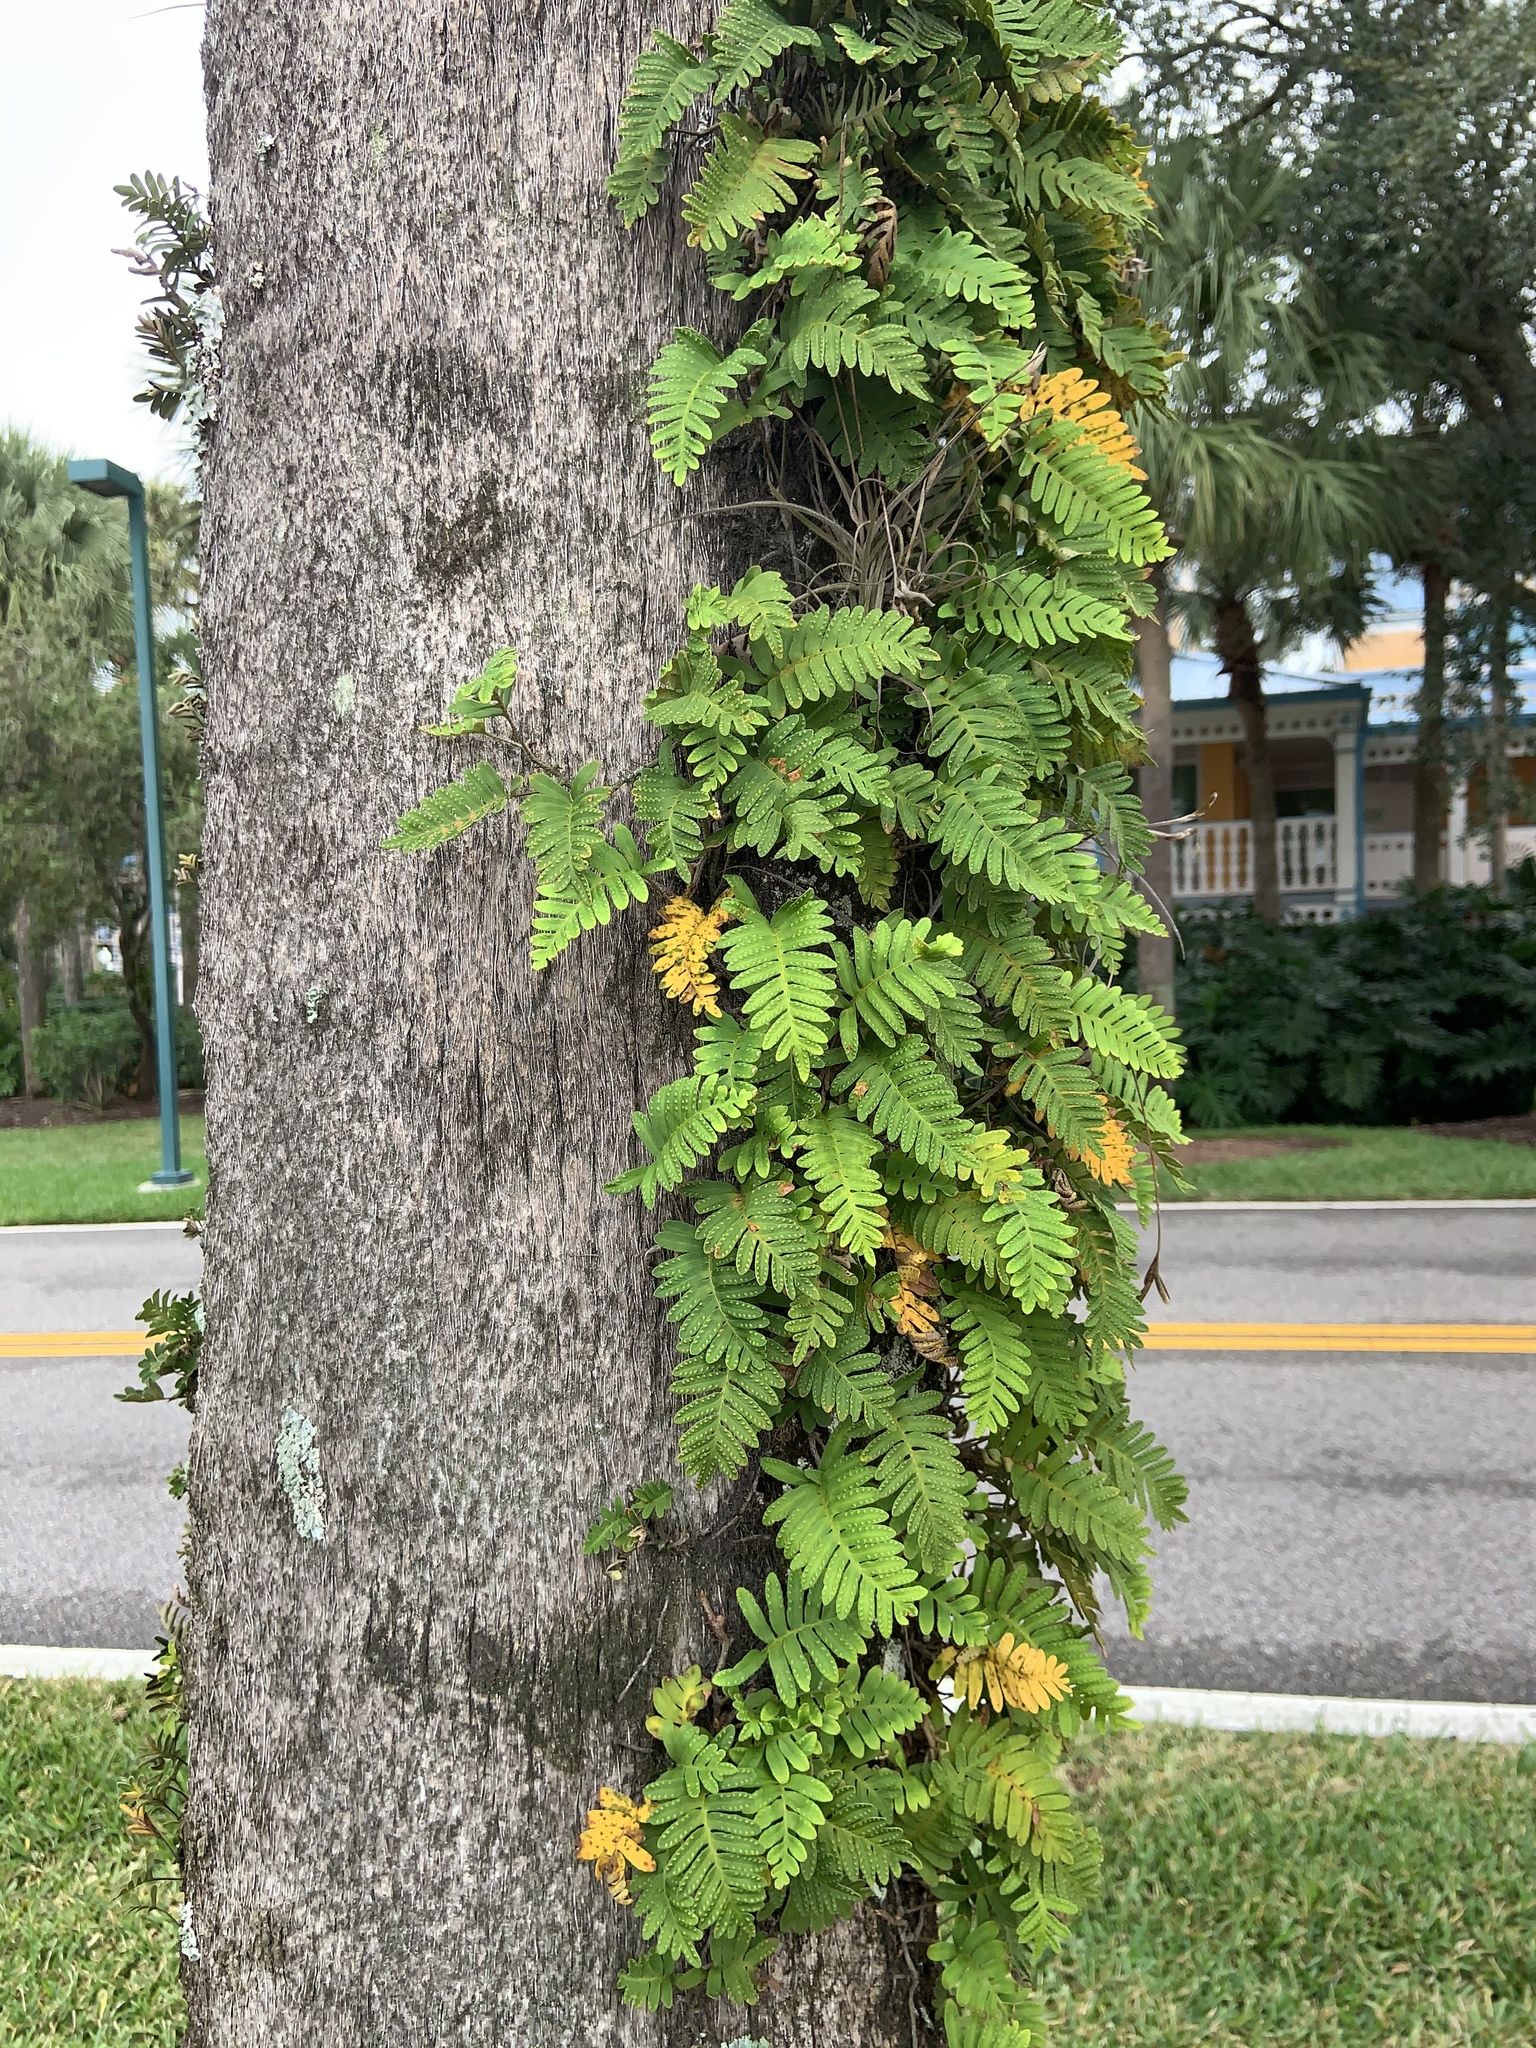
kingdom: Plantae
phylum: Tracheophyta
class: Polypodiopsida
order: Polypodiales
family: Polypodiaceae
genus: Pleopeltis
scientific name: Pleopeltis michauxiana
